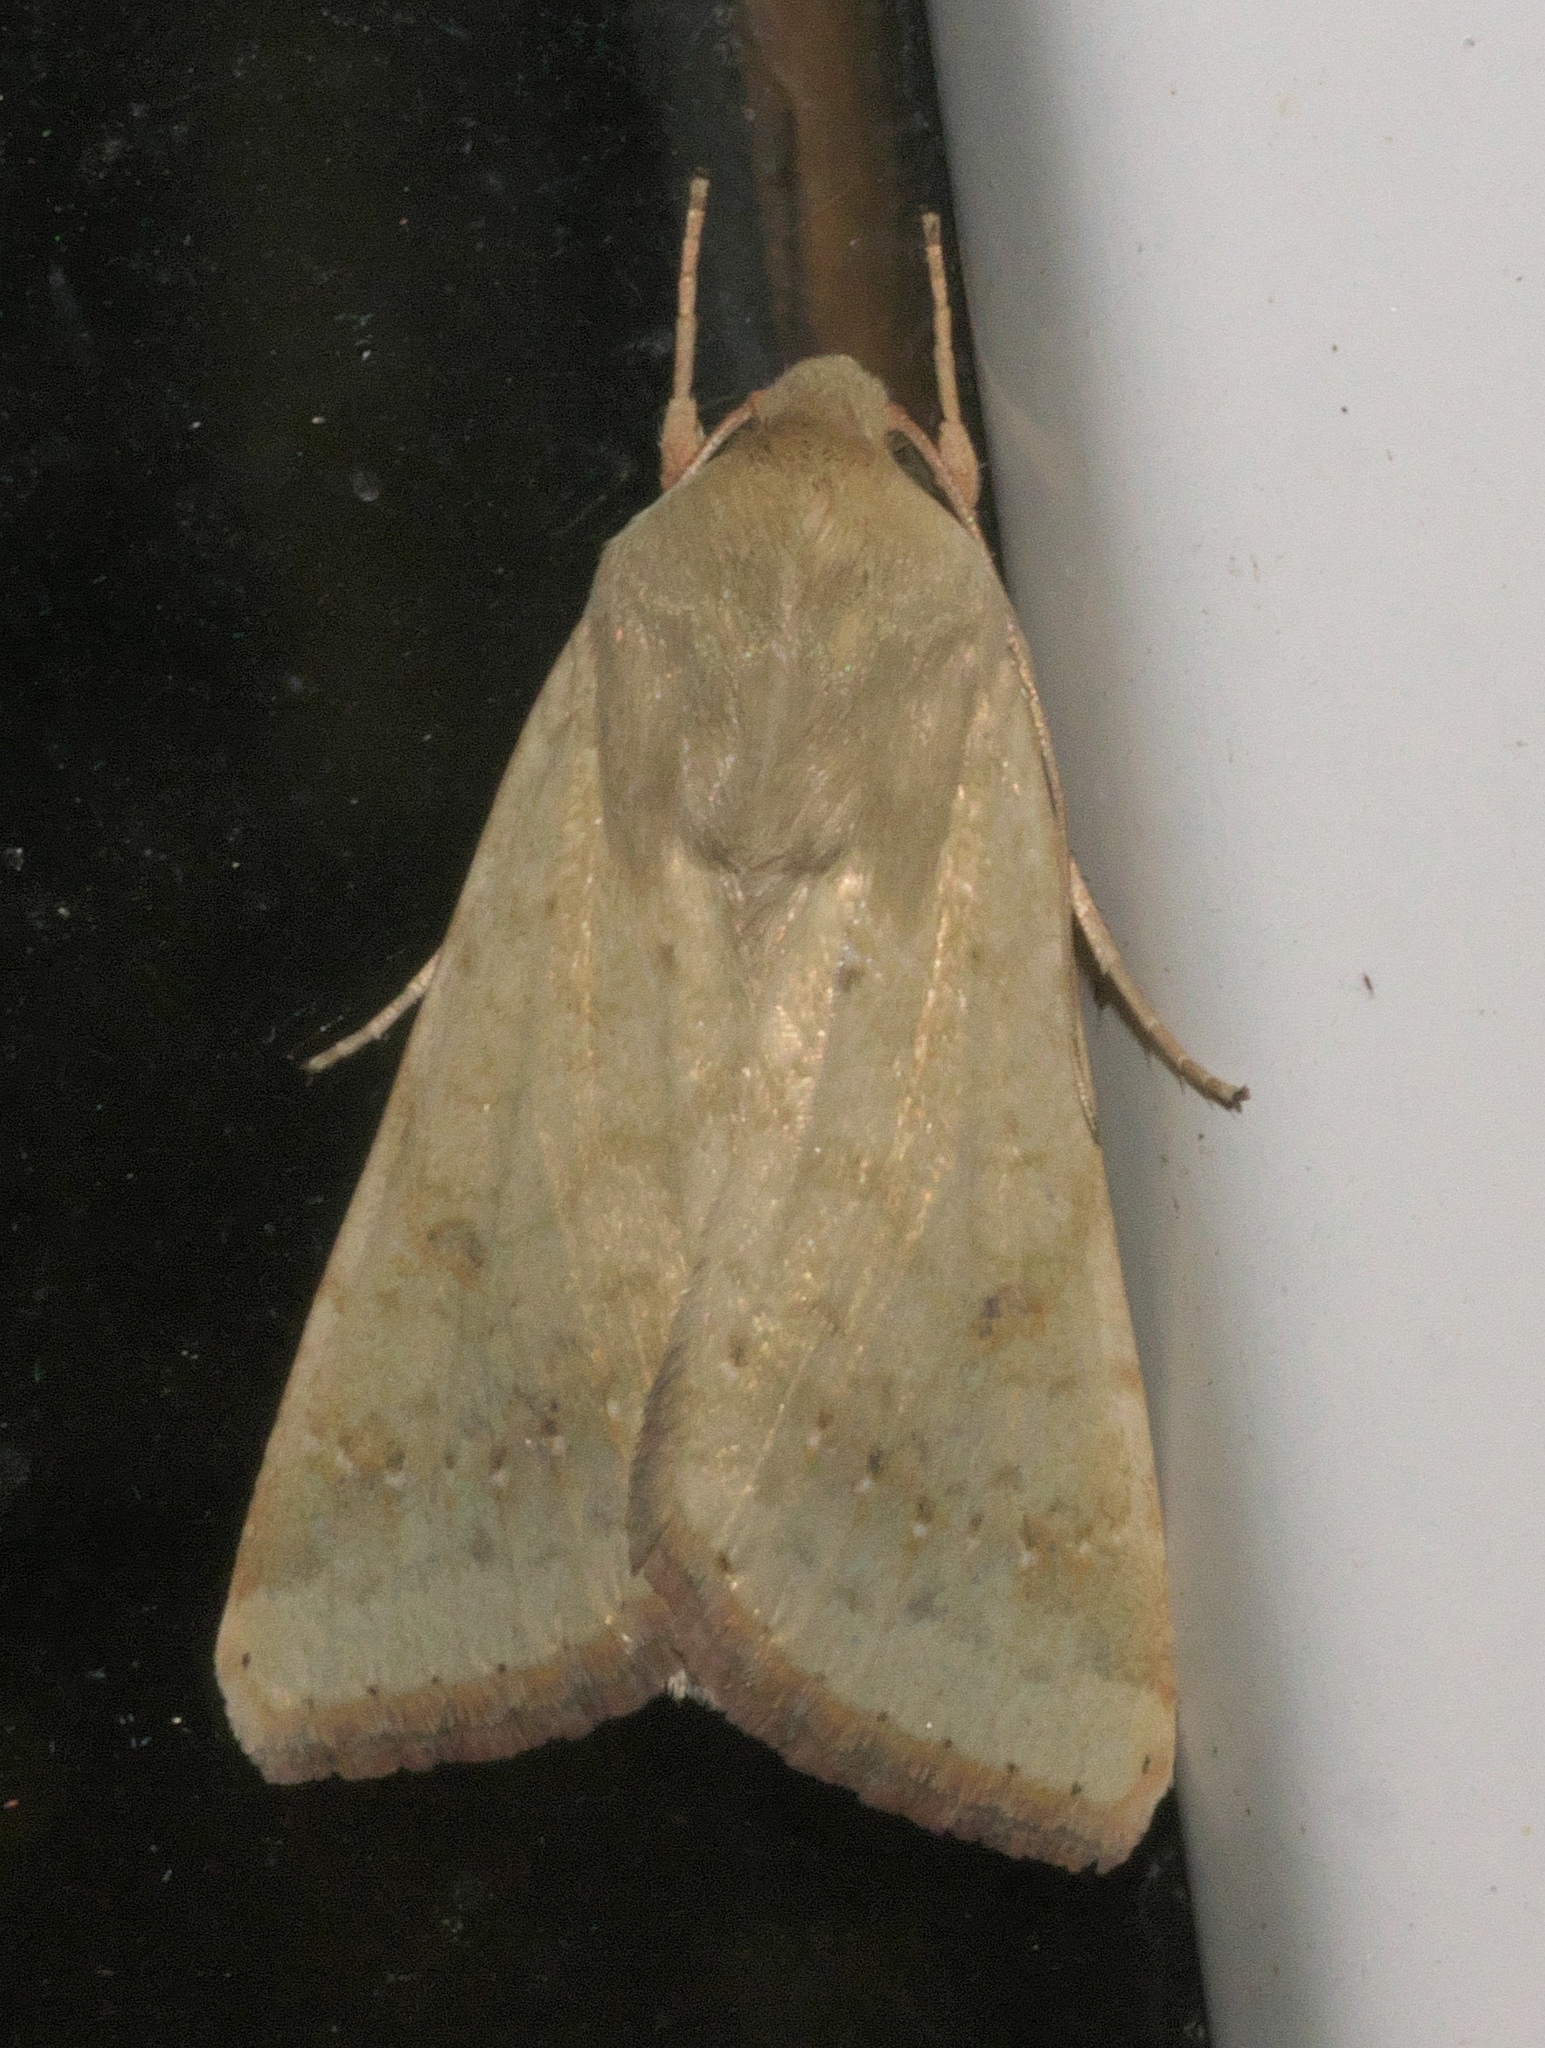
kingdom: Animalia
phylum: Arthropoda
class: Insecta
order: Lepidoptera
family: Noctuidae
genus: Helicoverpa
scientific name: Helicoverpa zea
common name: Bollworm
